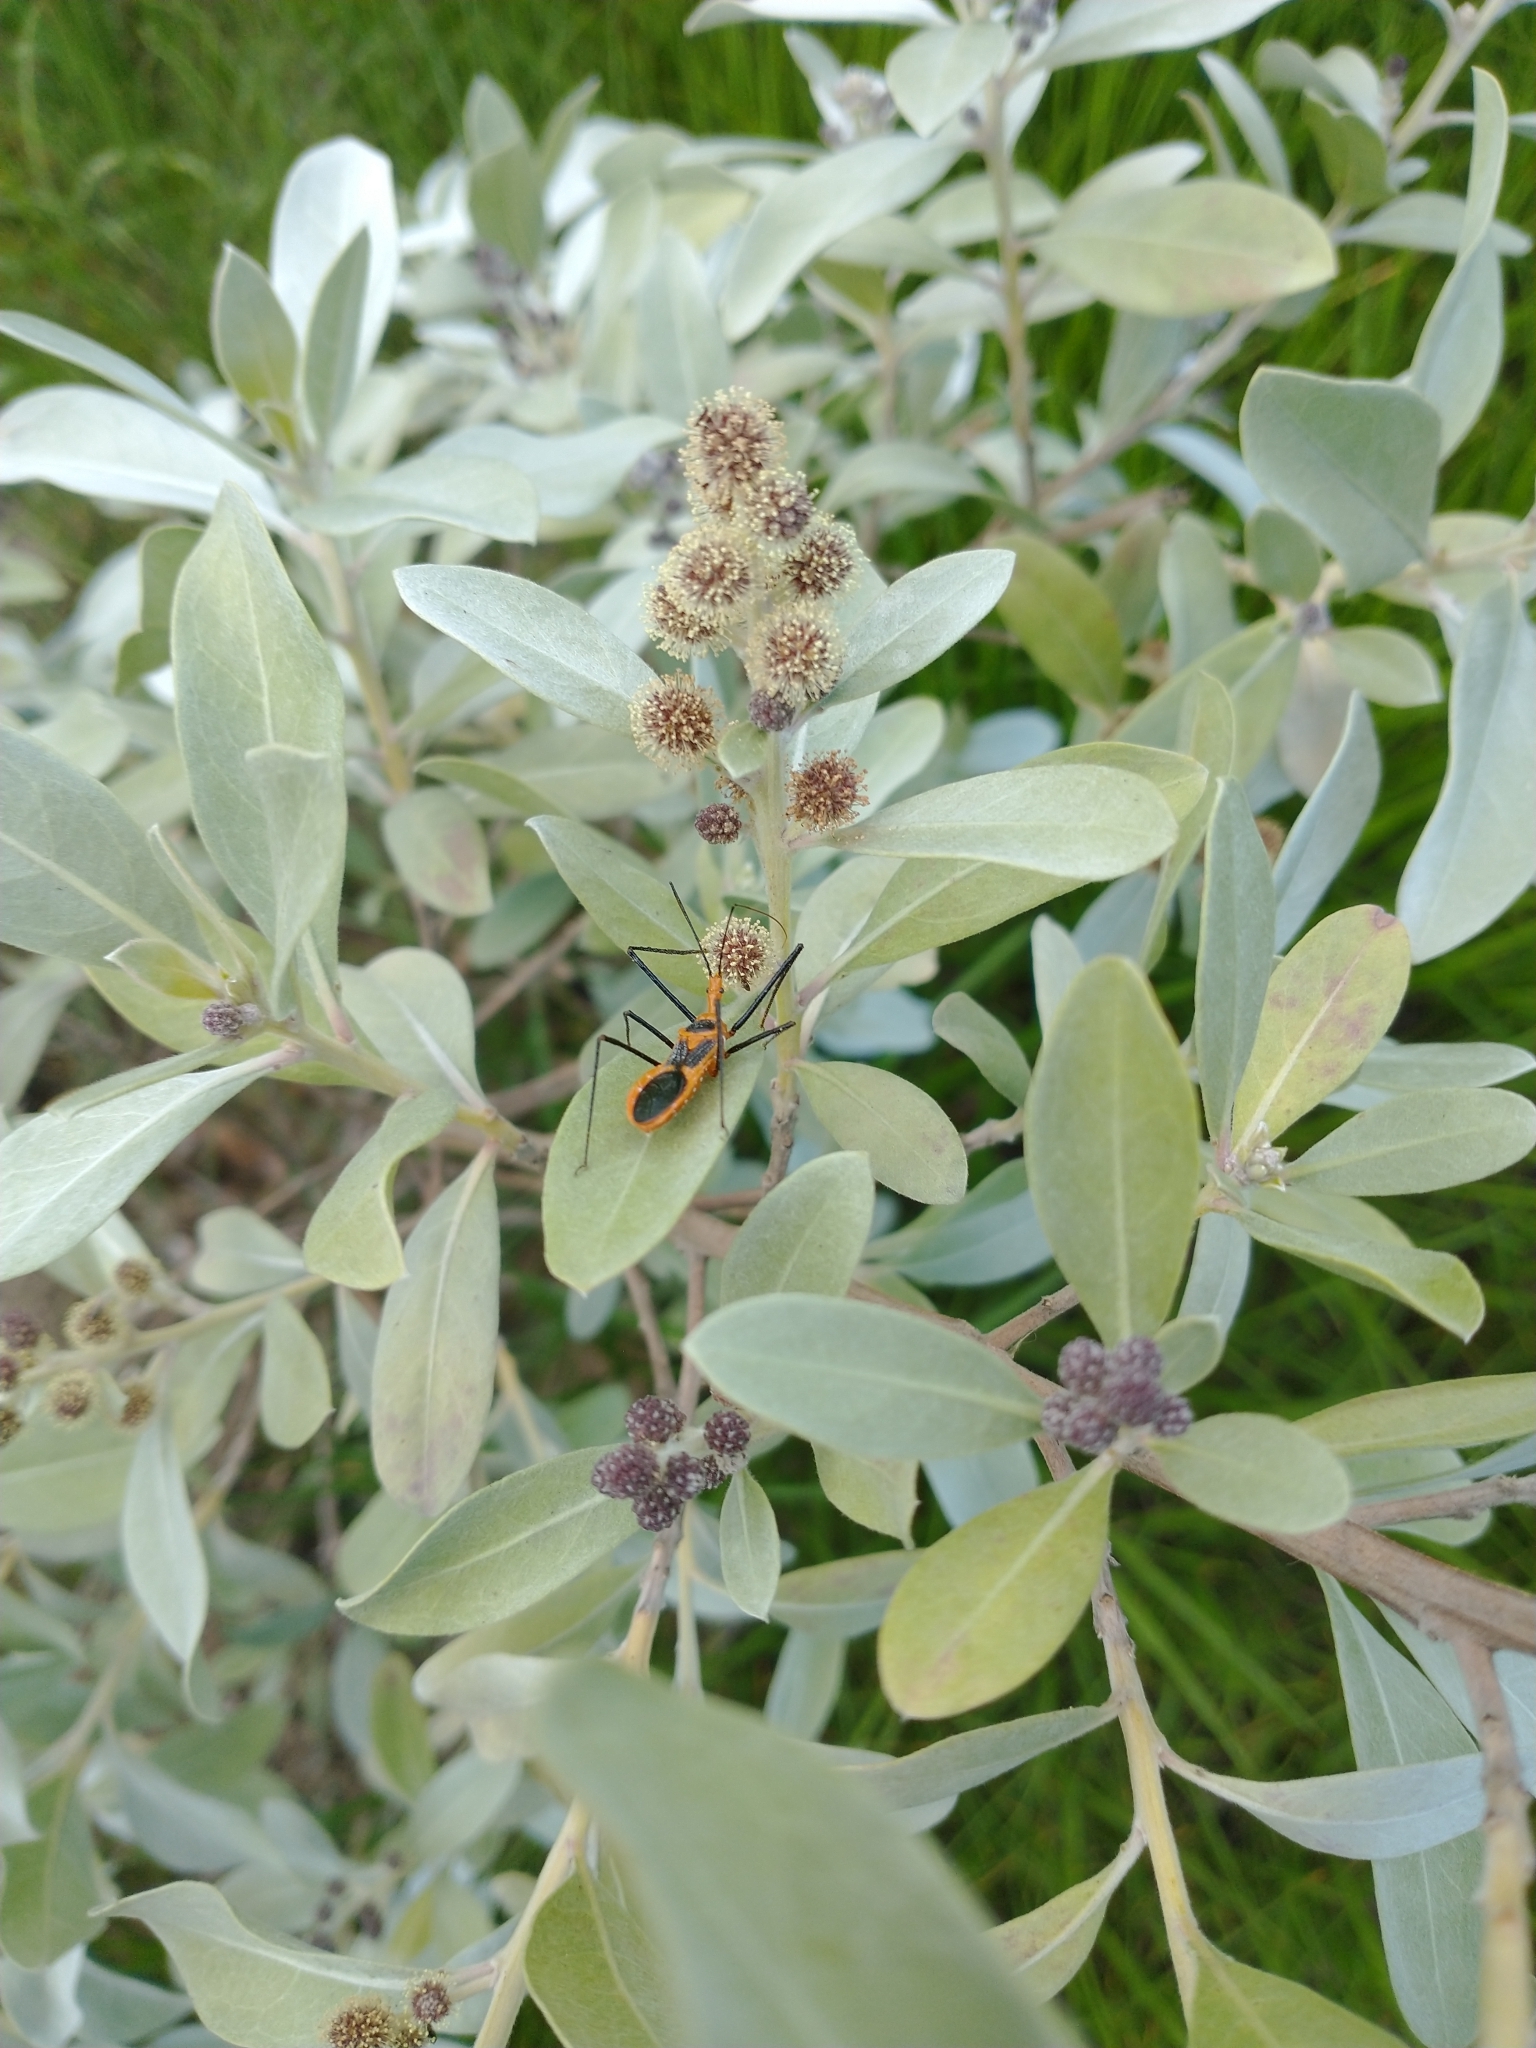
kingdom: Animalia
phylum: Arthropoda
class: Insecta
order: Hemiptera
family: Reduviidae
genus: Zelus
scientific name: Zelus longipes
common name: Milkweed assassin bug
